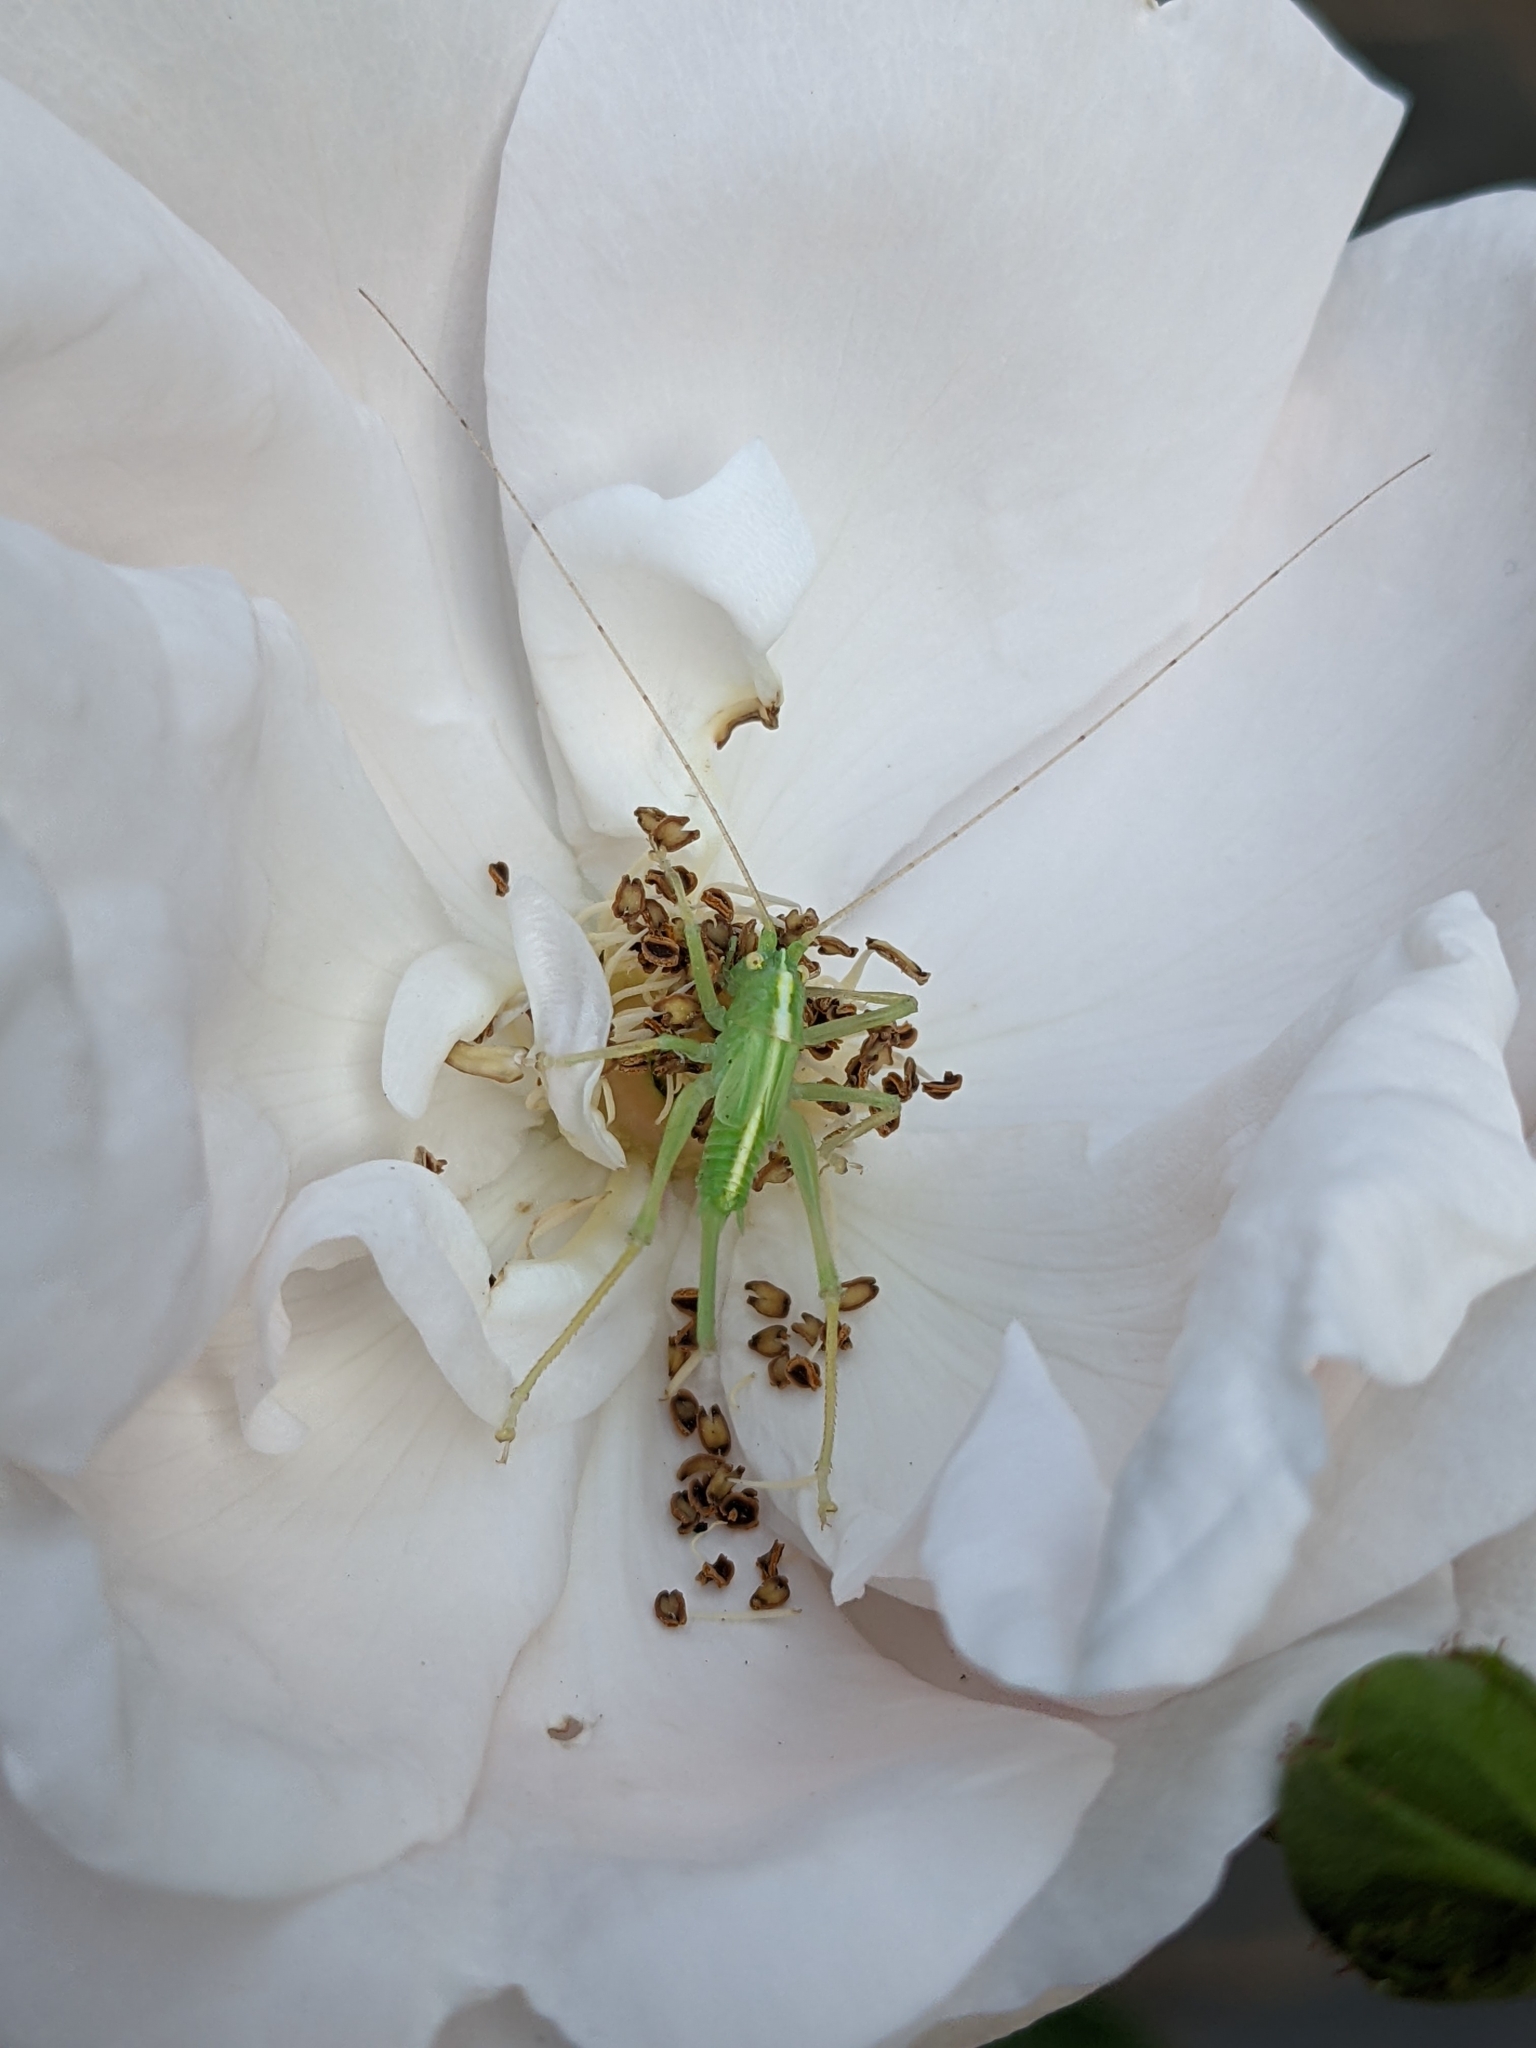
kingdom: Animalia
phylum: Arthropoda
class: Insecta
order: Orthoptera
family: Tettigoniidae
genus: Meconema
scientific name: Meconema thalassinum
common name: Oak bush-cricket
